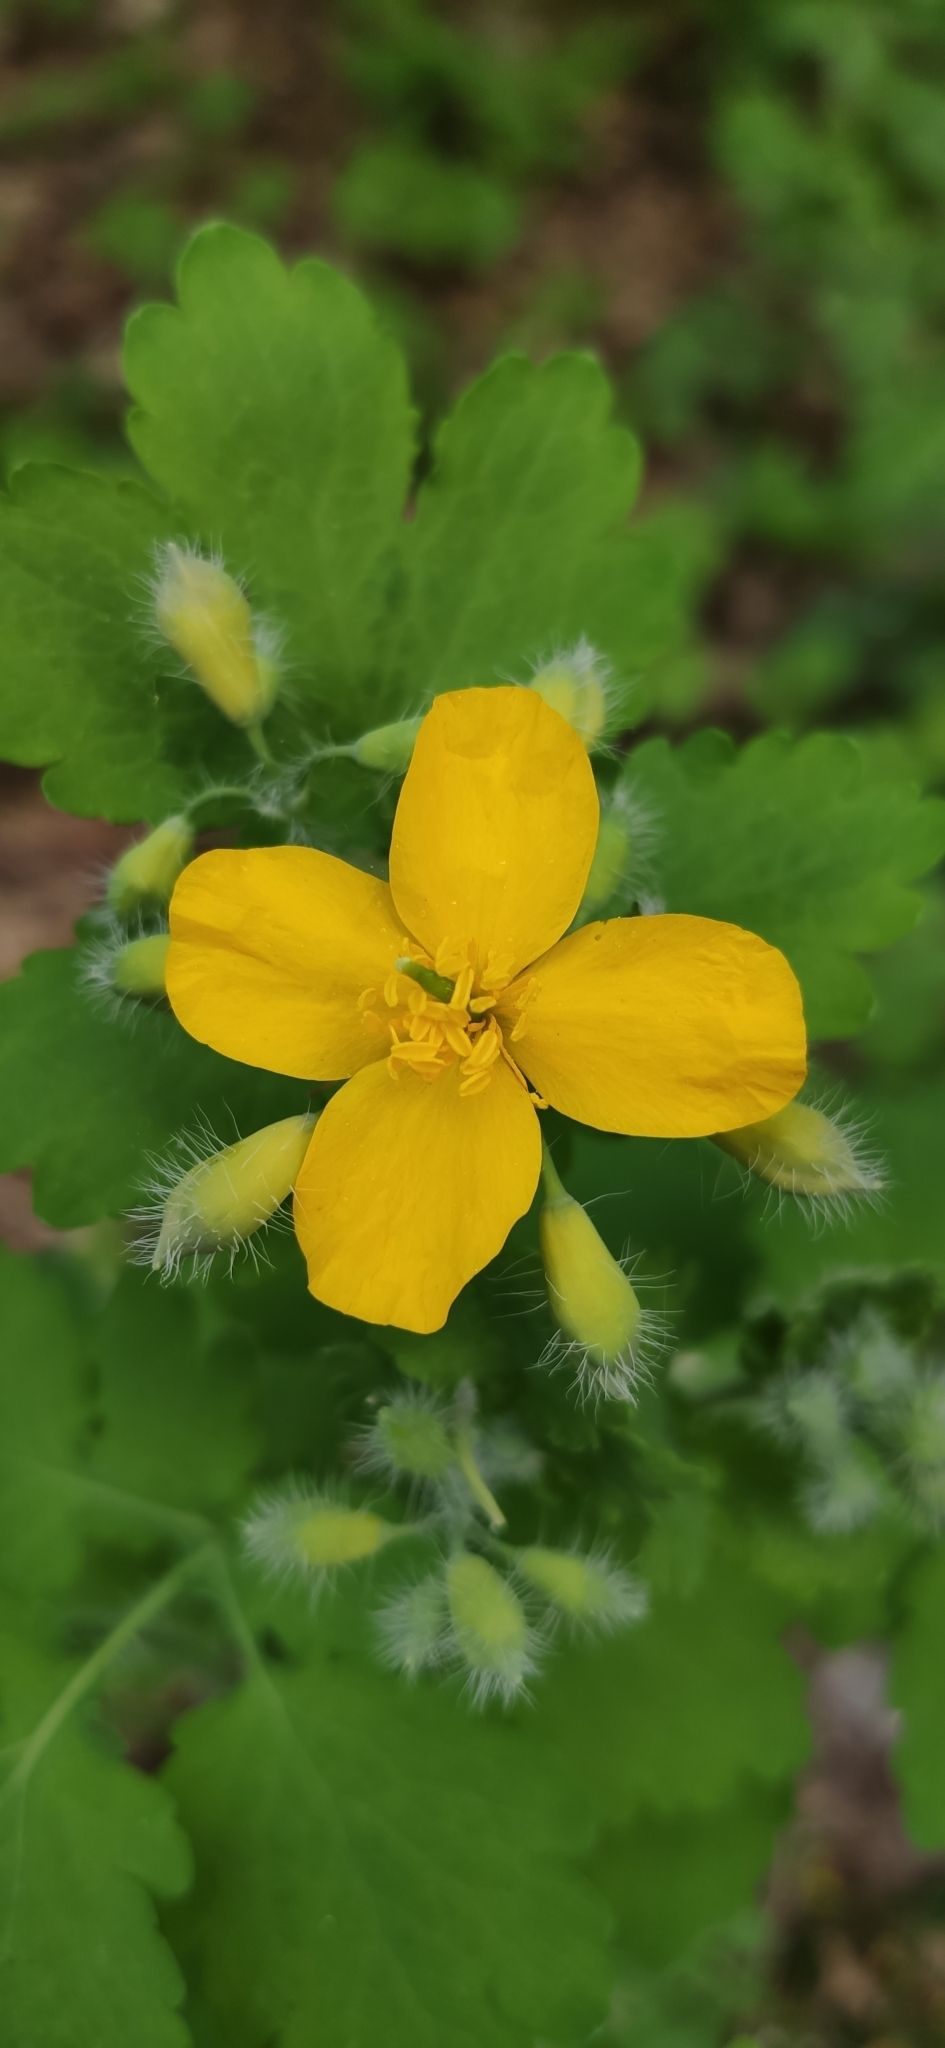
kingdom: Plantae
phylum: Tracheophyta
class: Magnoliopsida
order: Ranunculales
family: Papaveraceae
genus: Chelidonium
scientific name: Chelidonium majus
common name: Greater celandine
